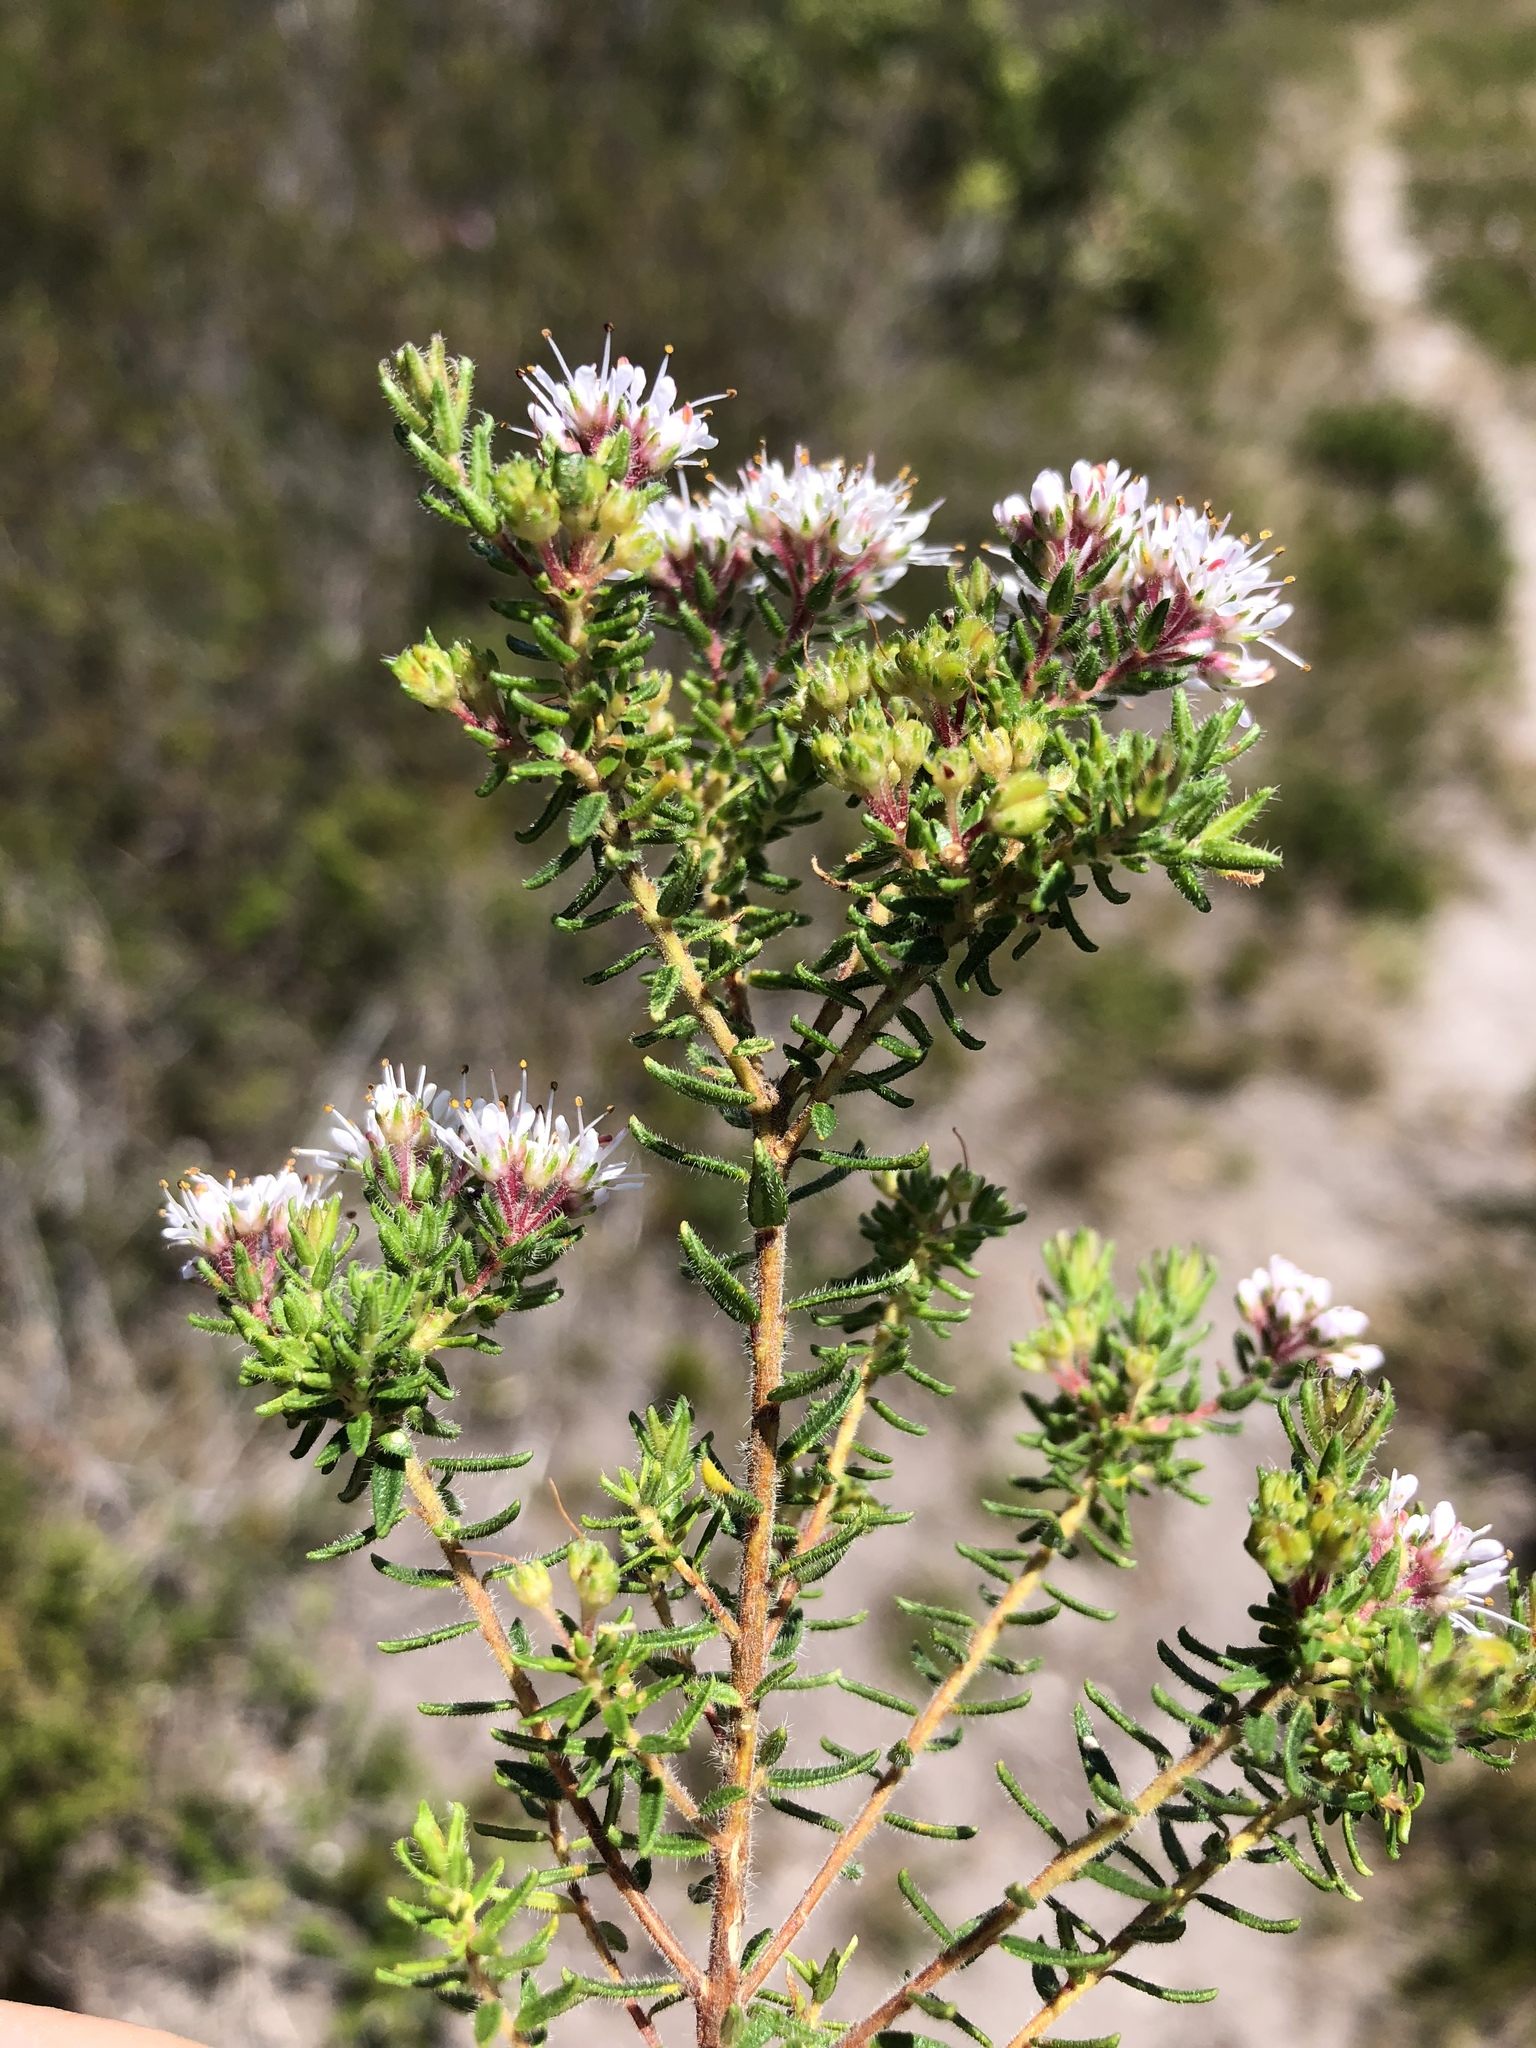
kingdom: Plantae
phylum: Tracheophyta
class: Magnoliopsida
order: Sapindales
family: Rutaceae
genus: Agathosma
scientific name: Agathosma serpyllacea
